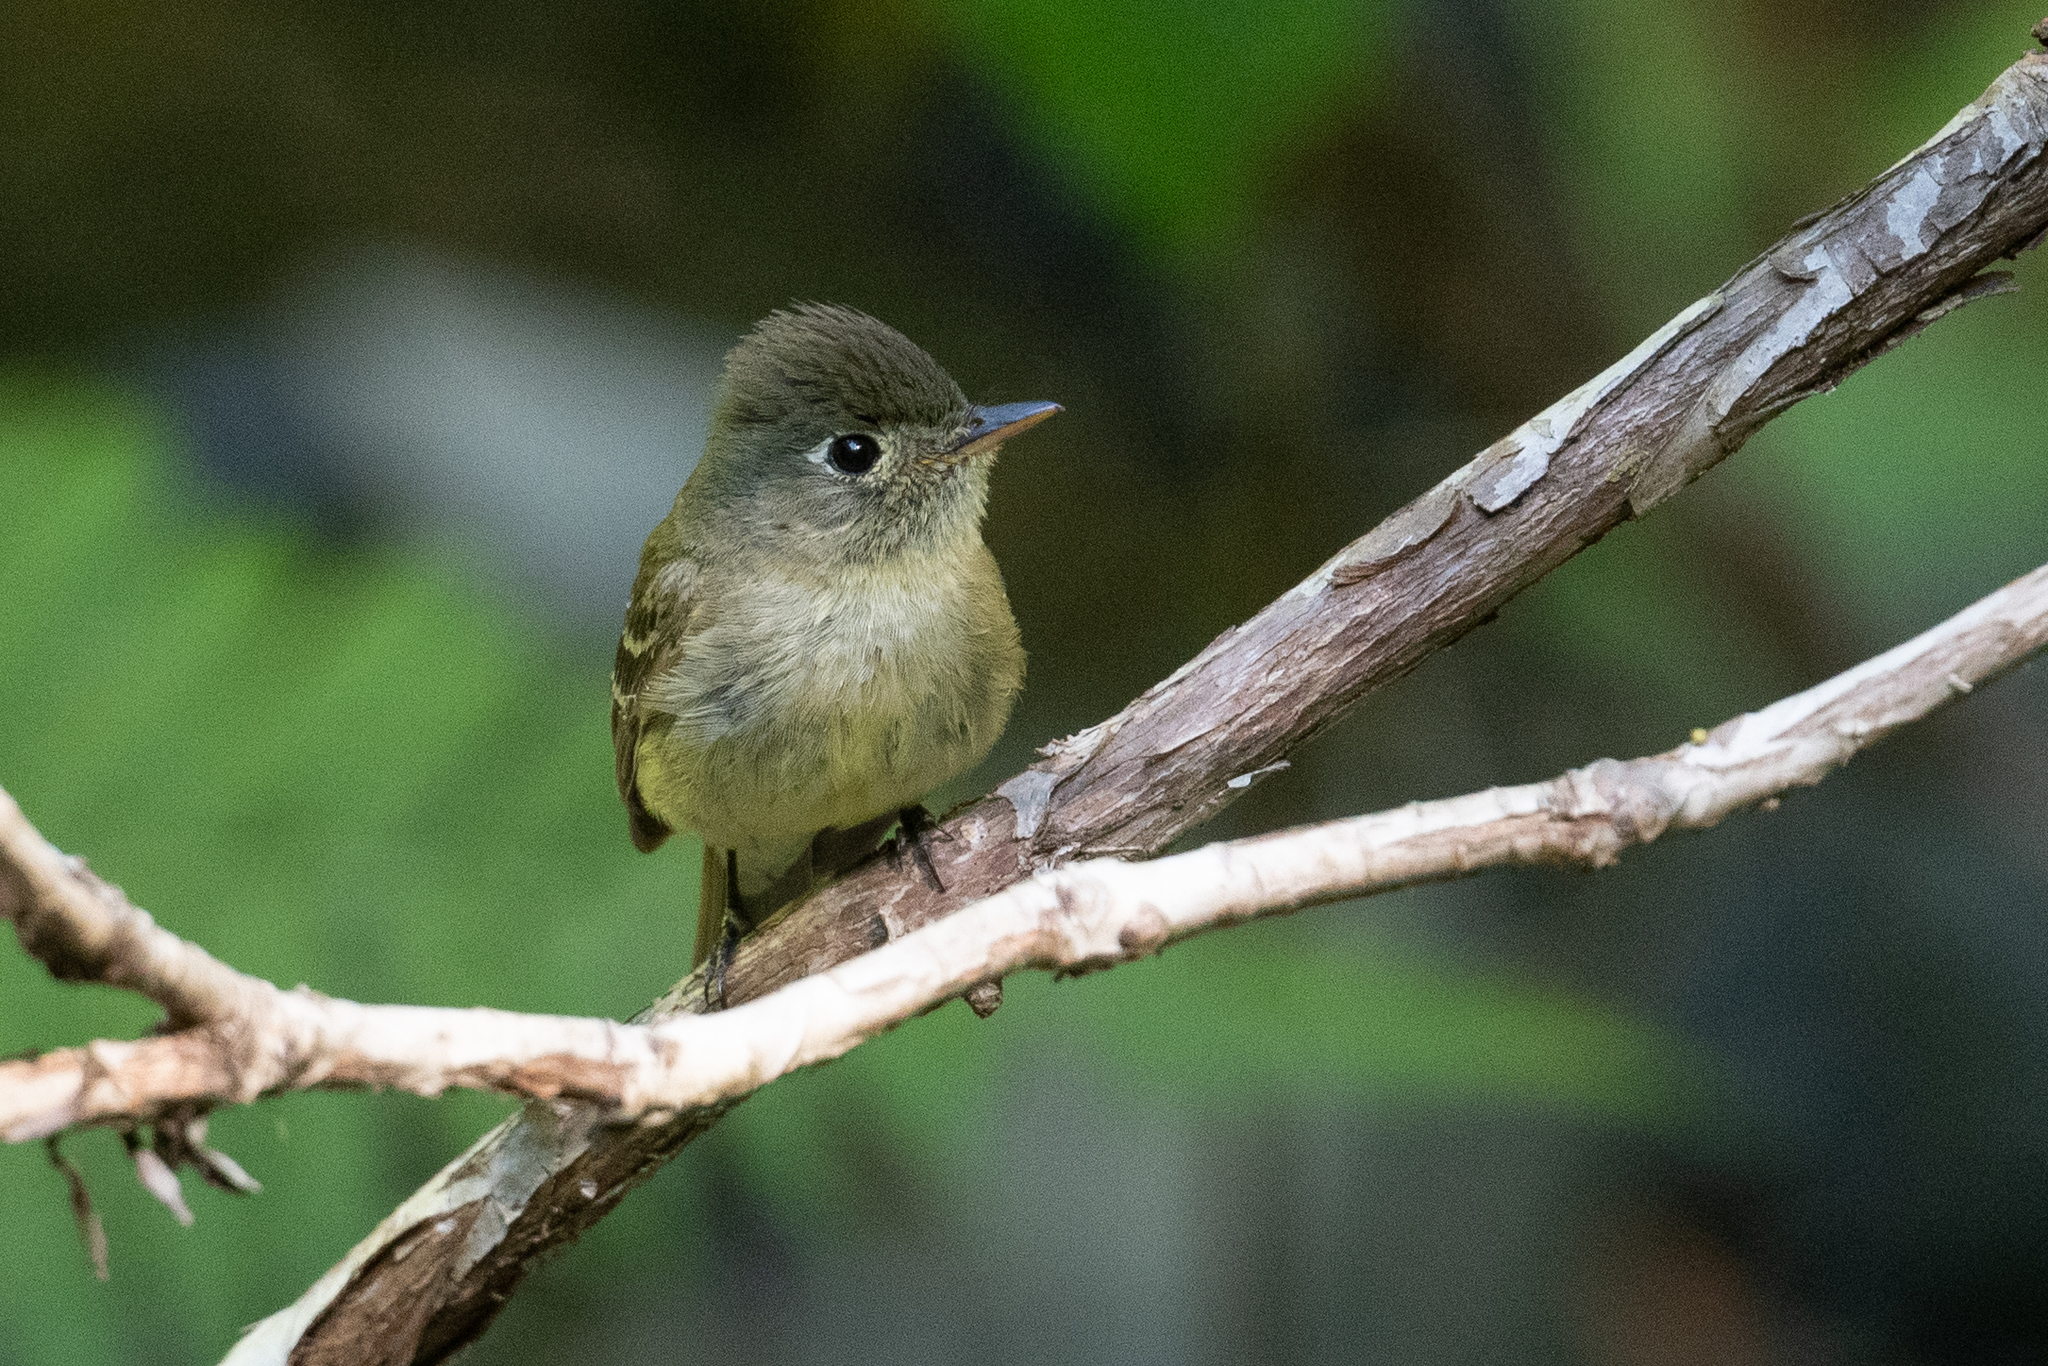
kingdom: Animalia
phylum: Chordata
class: Aves
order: Passeriformes
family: Tyrannidae
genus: Empidonax
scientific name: Empidonax difficilis
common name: Pacific-slope flycatcher
